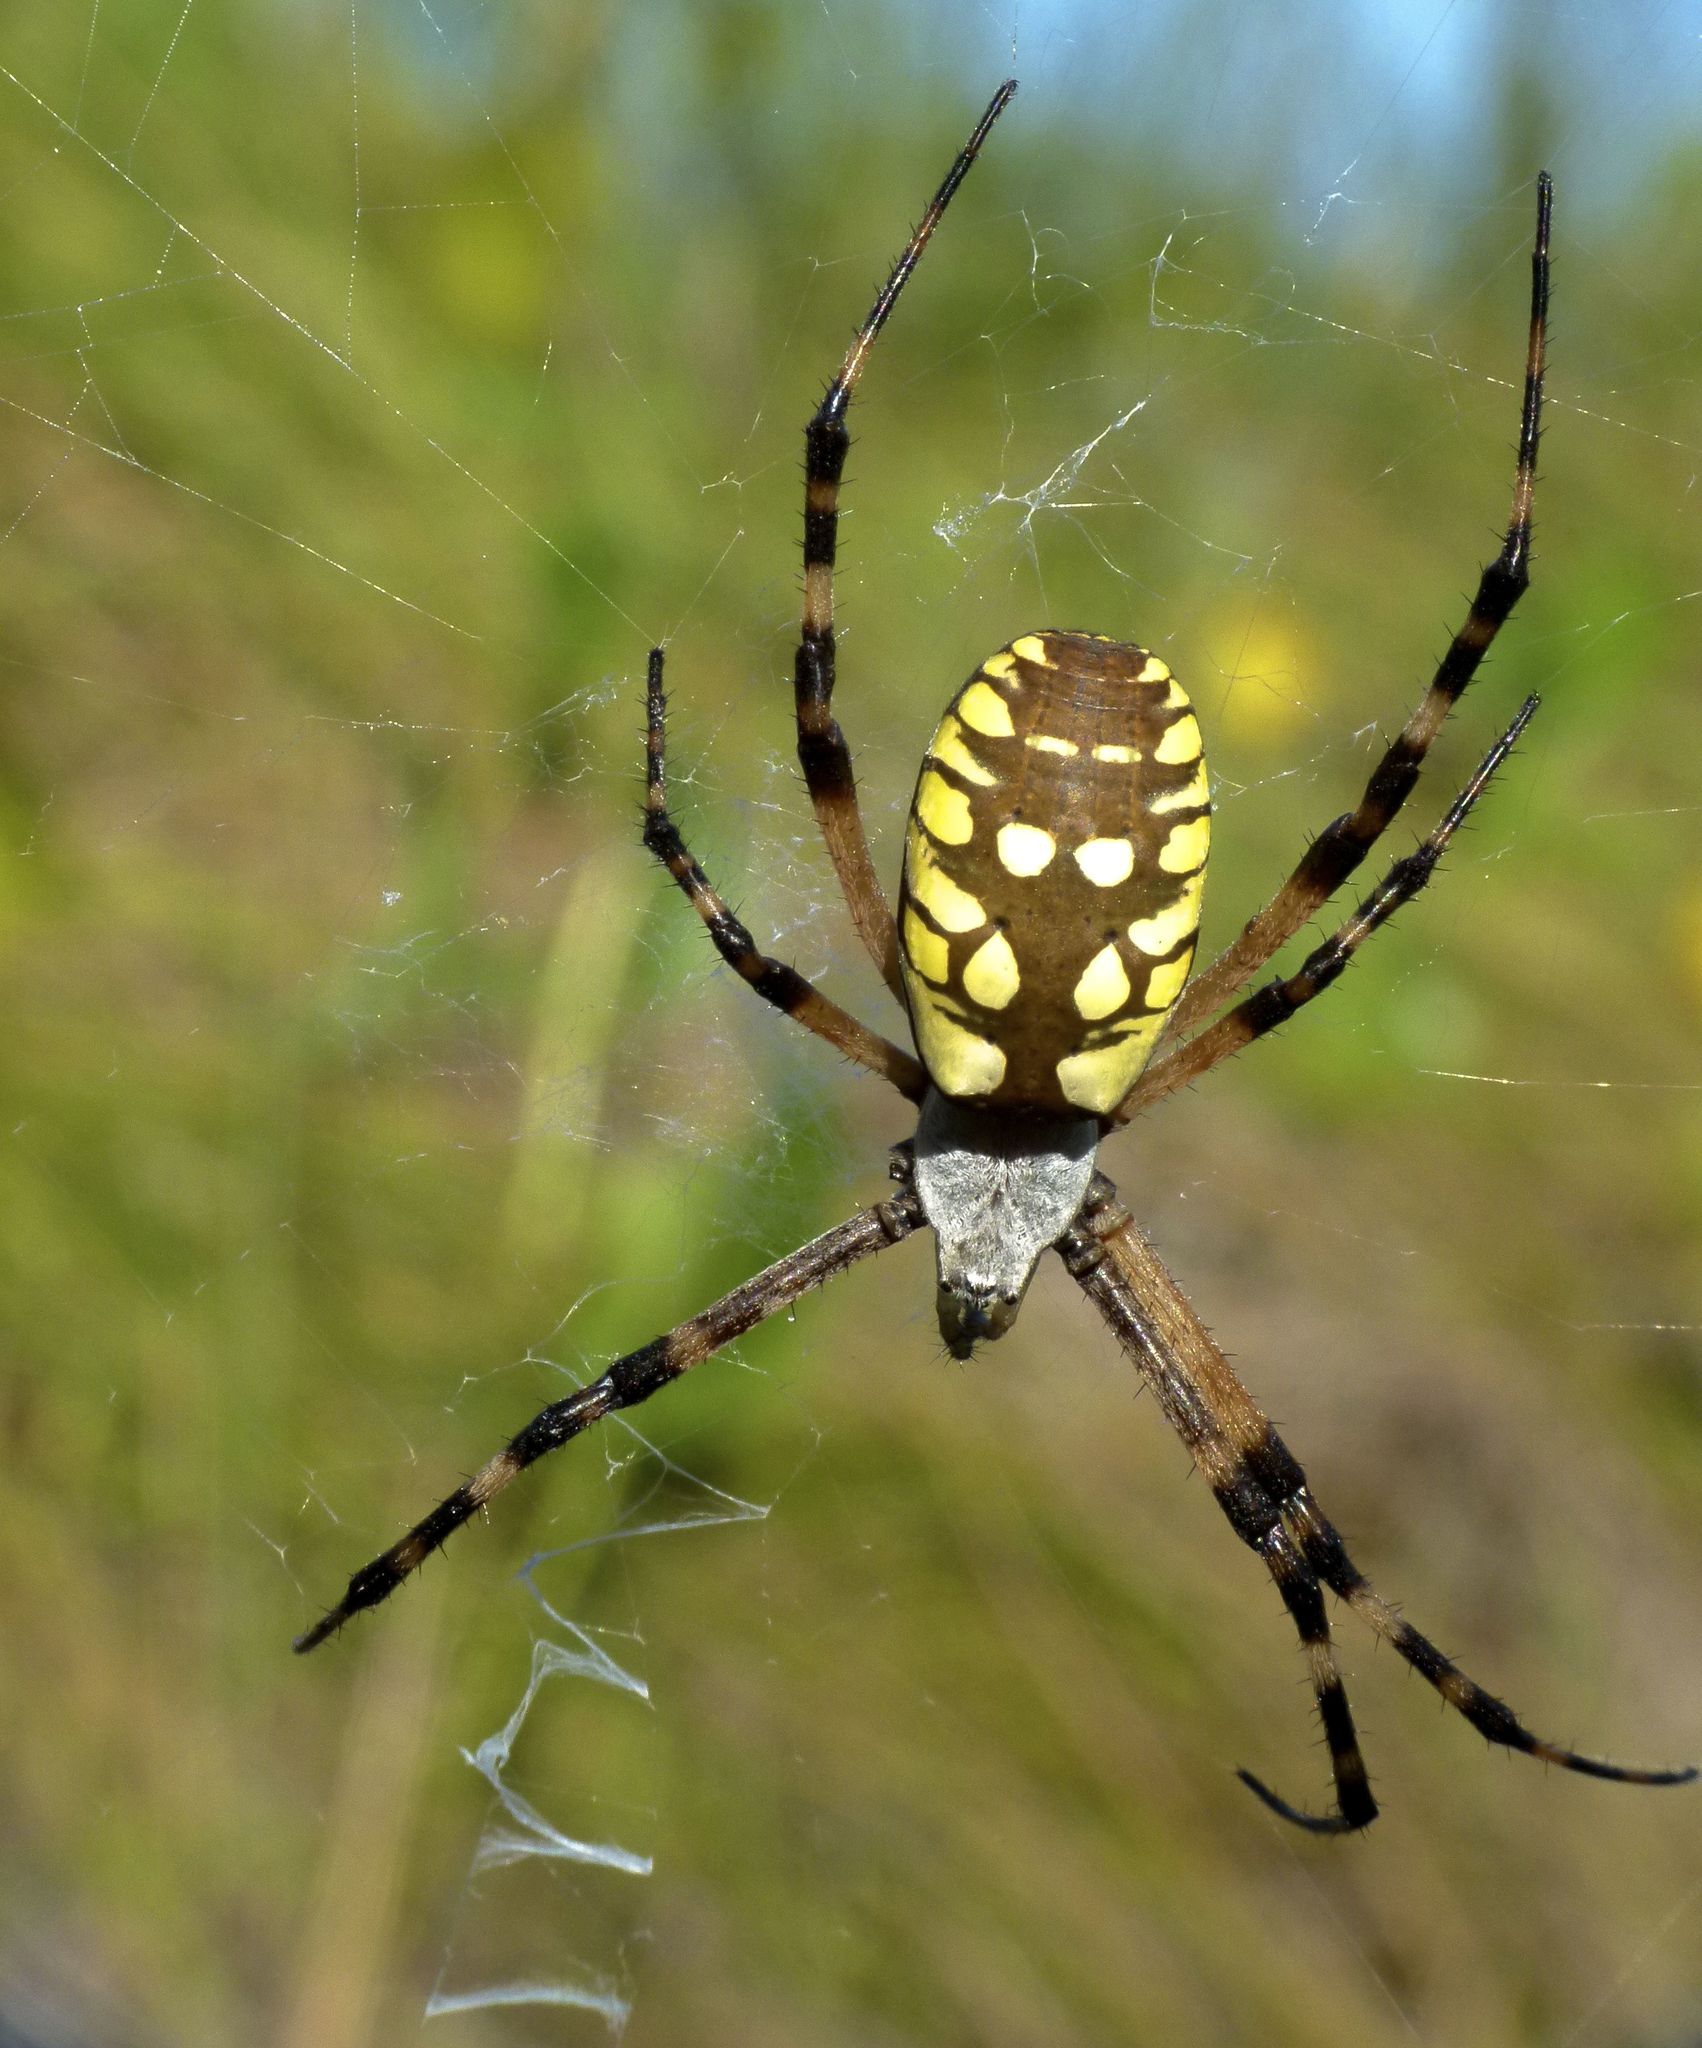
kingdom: Animalia
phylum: Arthropoda
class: Arachnida
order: Araneae
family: Araneidae
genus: Argiope
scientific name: Argiope aurantia
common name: Orb weavers
